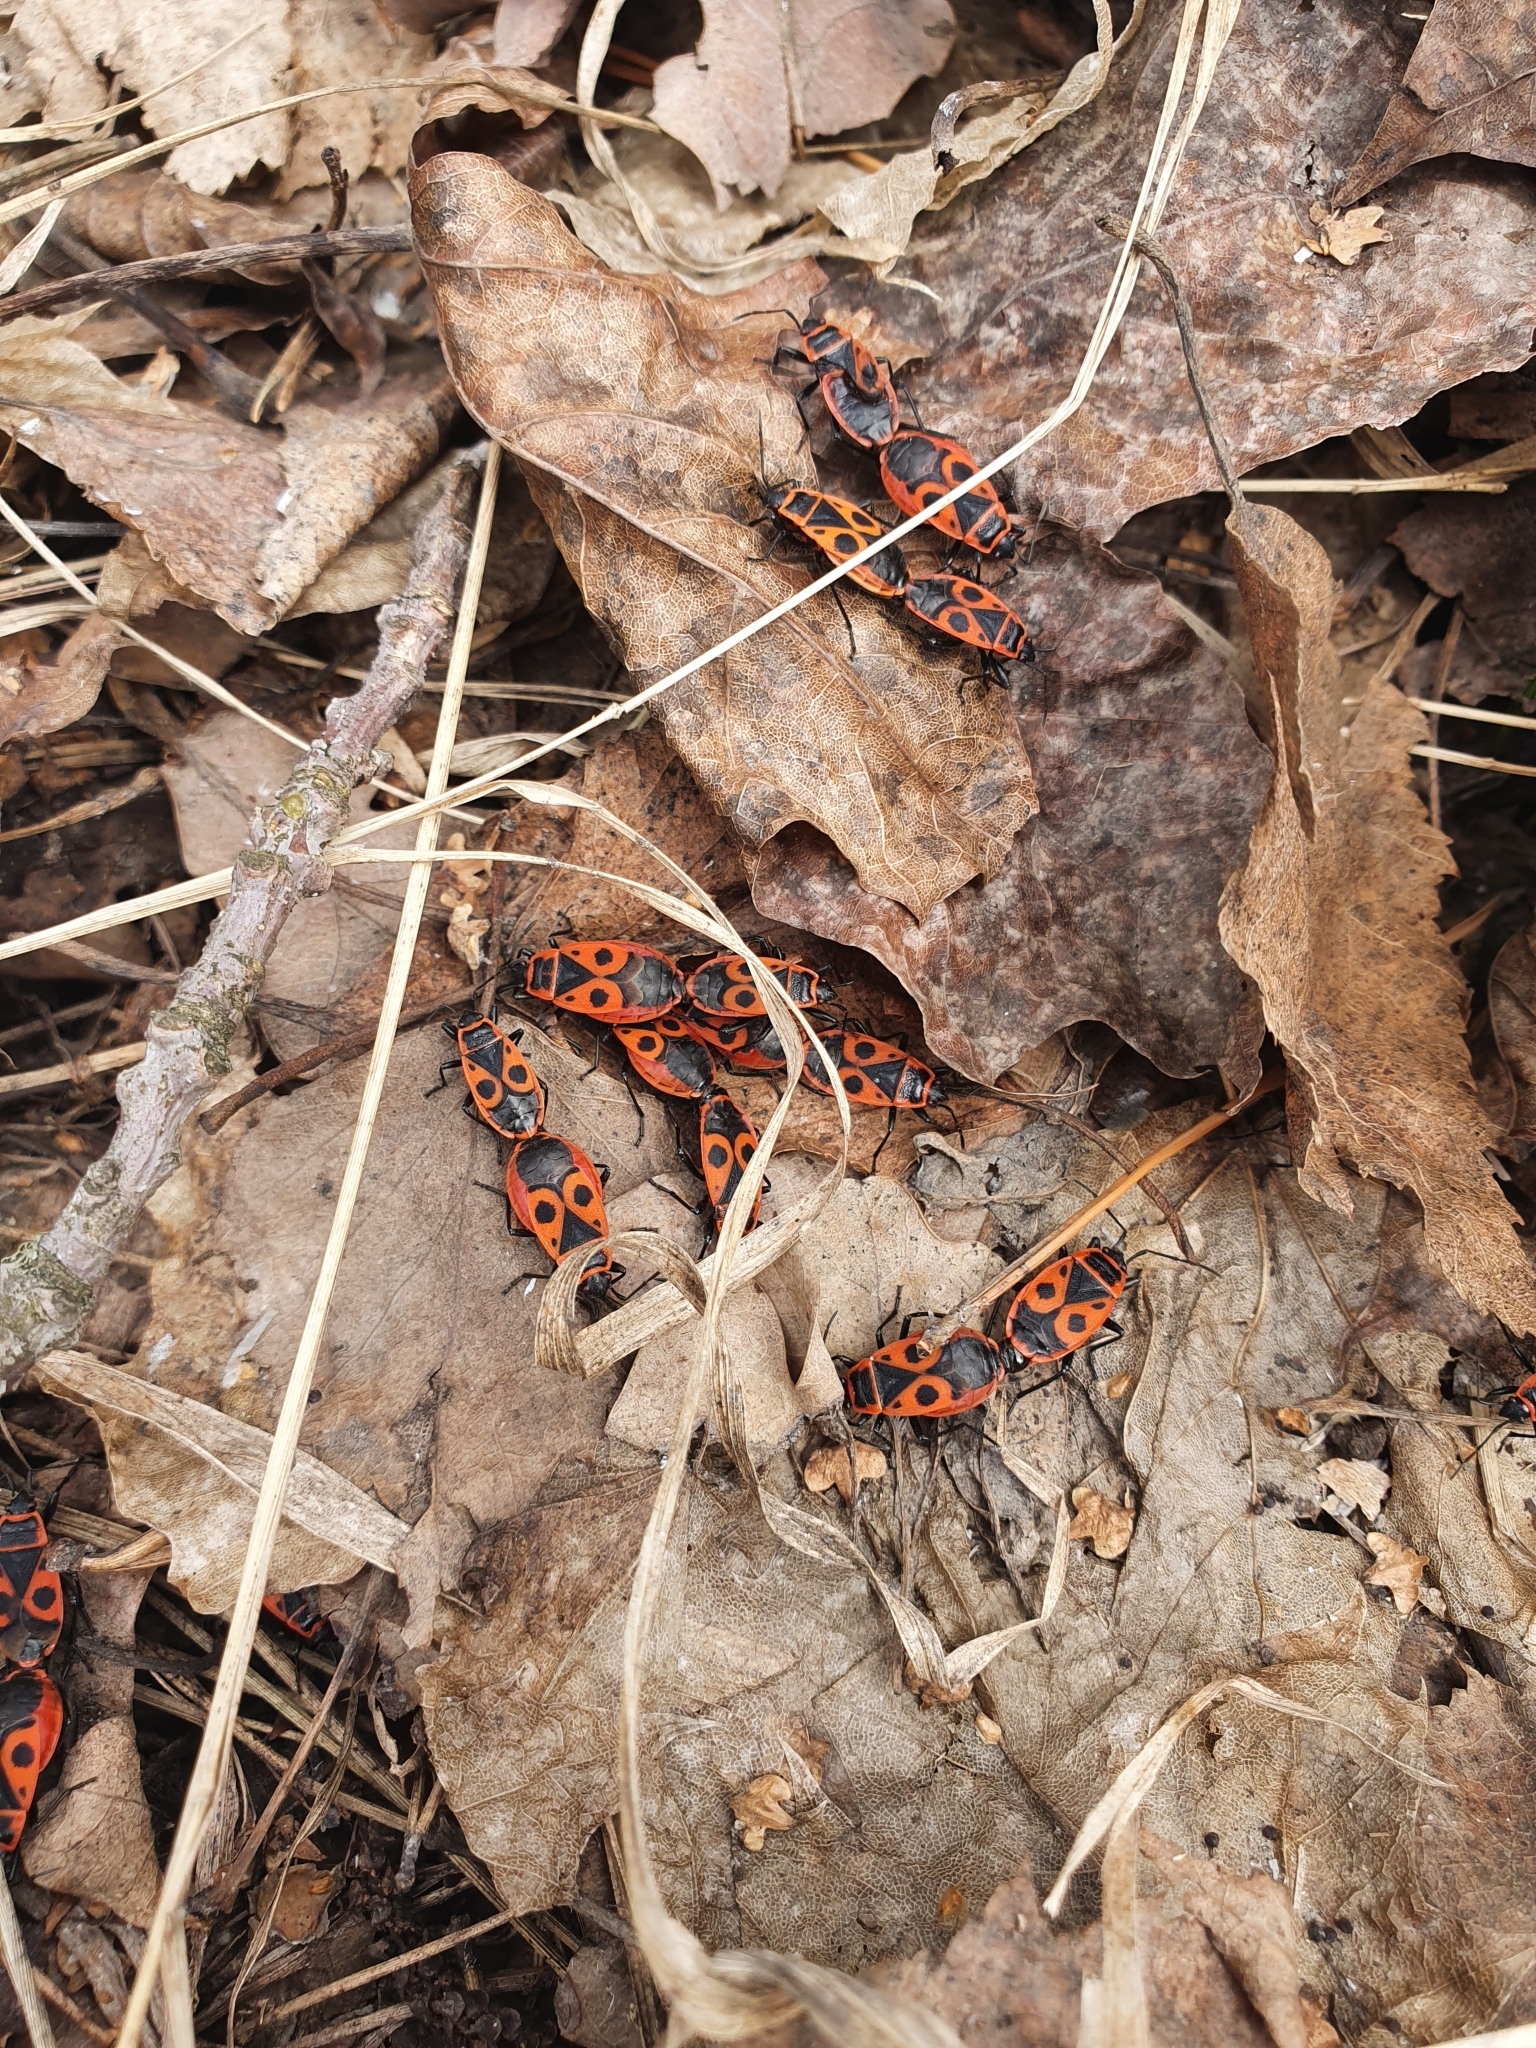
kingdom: Animalia
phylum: Arthropoda
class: Insecta
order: Hemiptera
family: Pyrrhocoridae
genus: Pyrrhocoris
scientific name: Pyrrhocoris apterus
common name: Firebug
